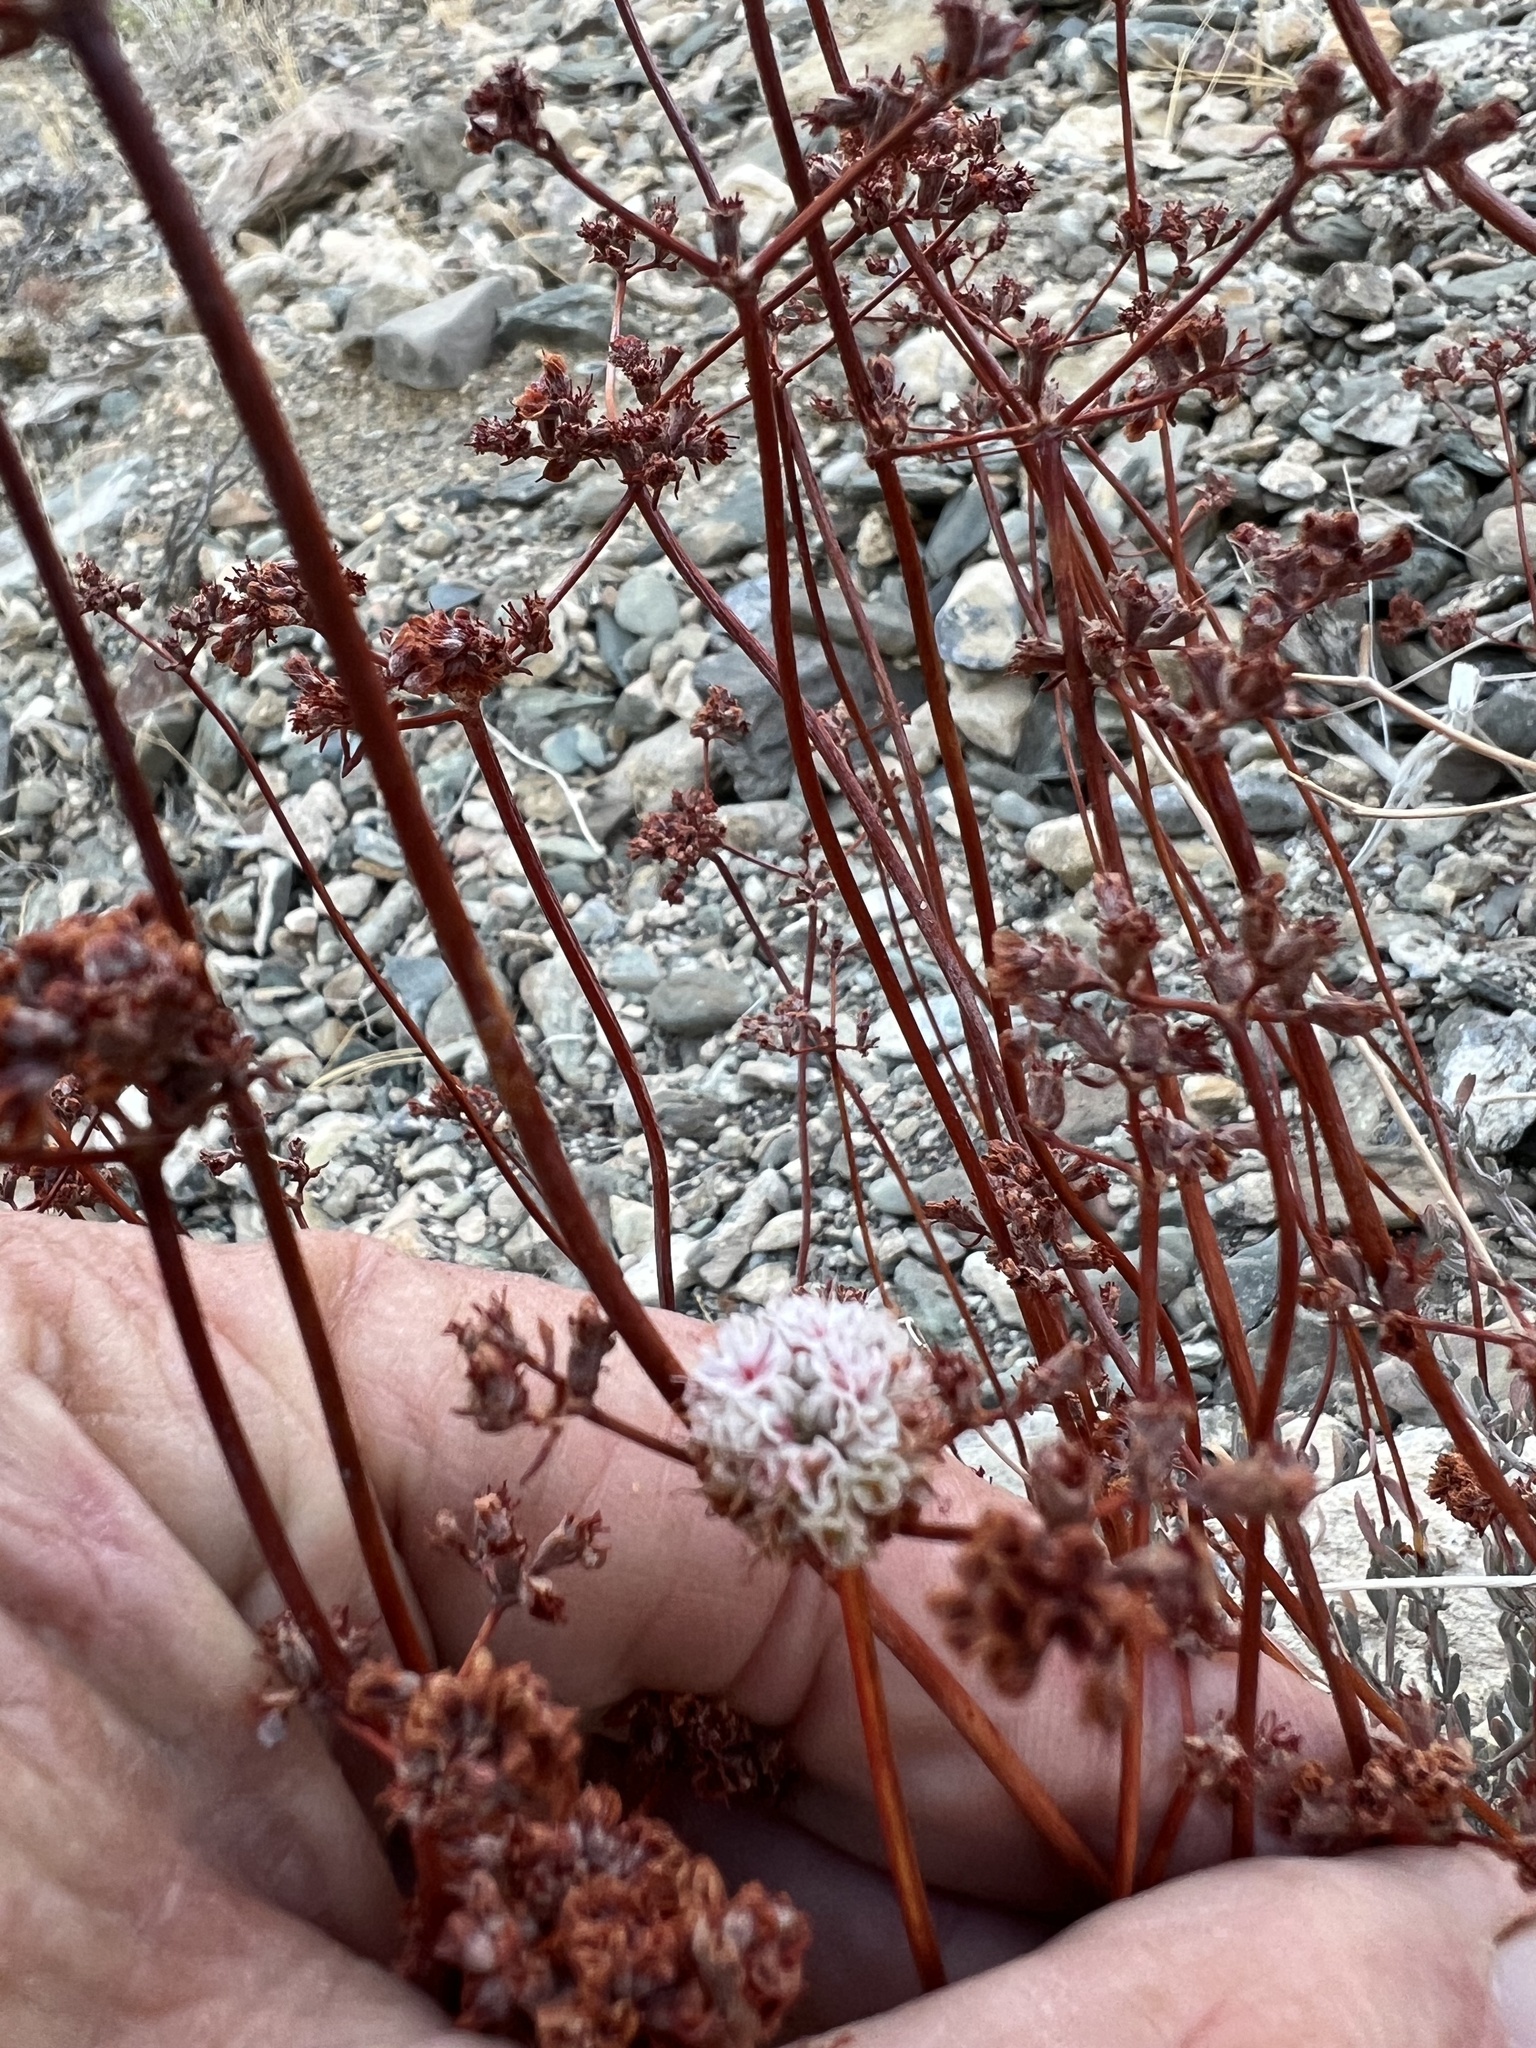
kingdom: Plantae
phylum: Tracheophyta
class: Magnoliopsida
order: Caryophyllales
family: Polygonaceae
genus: Eriogonum
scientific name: Eriogonum fasciculatum
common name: California wild buckwheat
